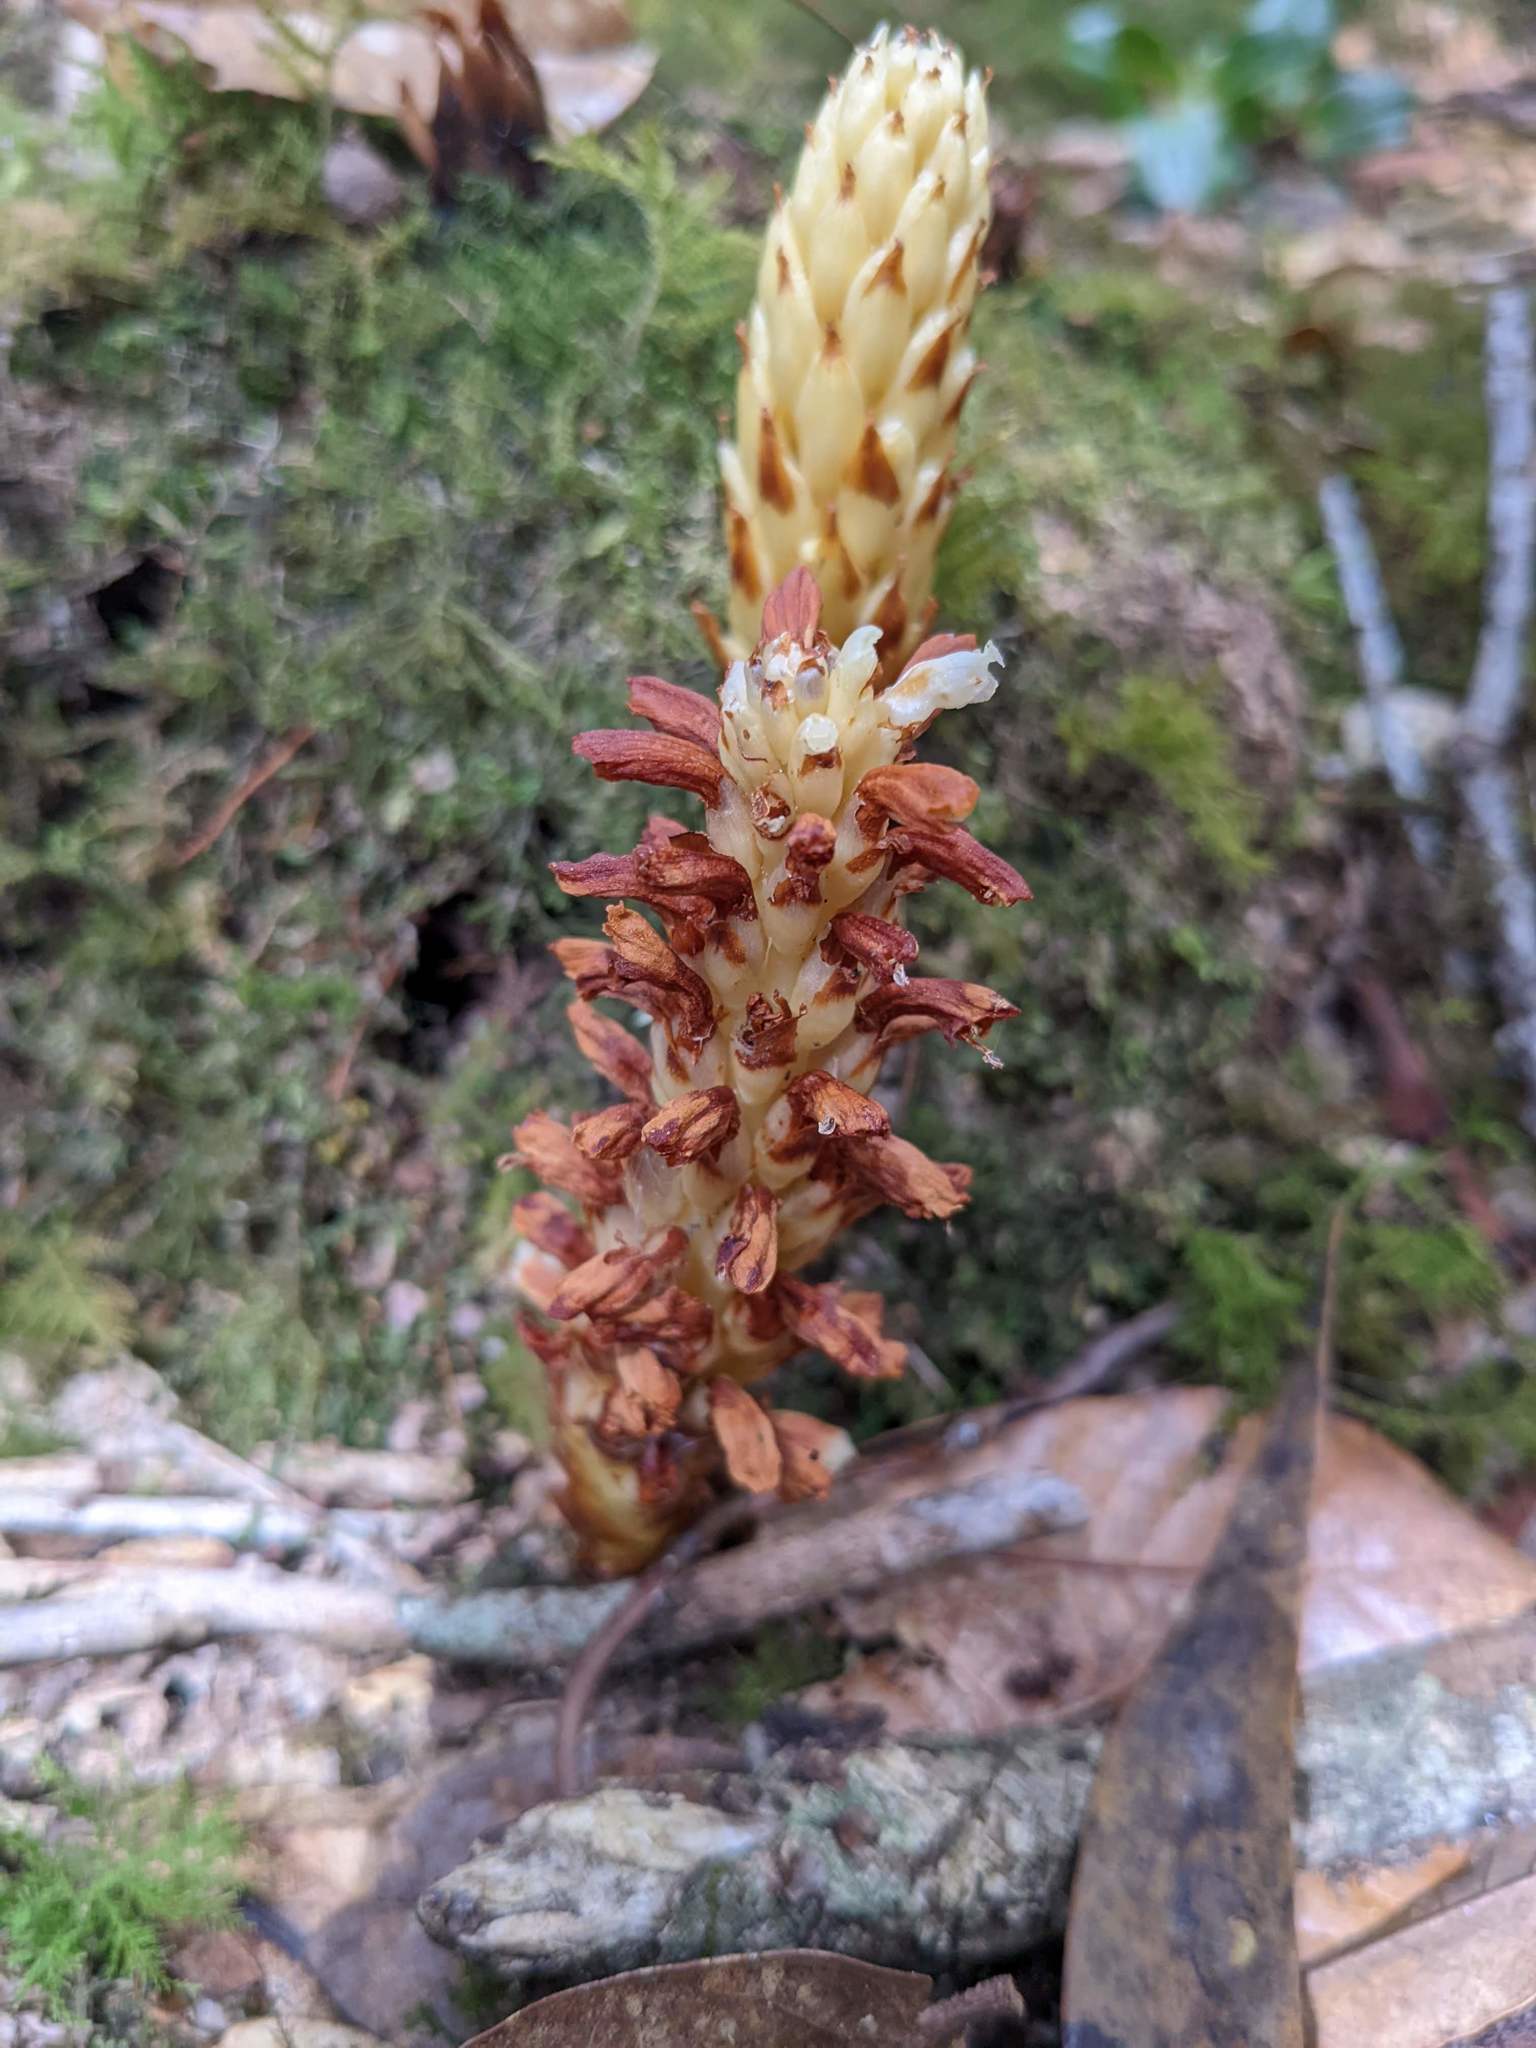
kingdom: Plantae
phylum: Tracheophyta
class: Magnoliopsida
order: Lamiales
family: Orobanchaceae
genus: Conopholis
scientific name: Conopholis panamensis
